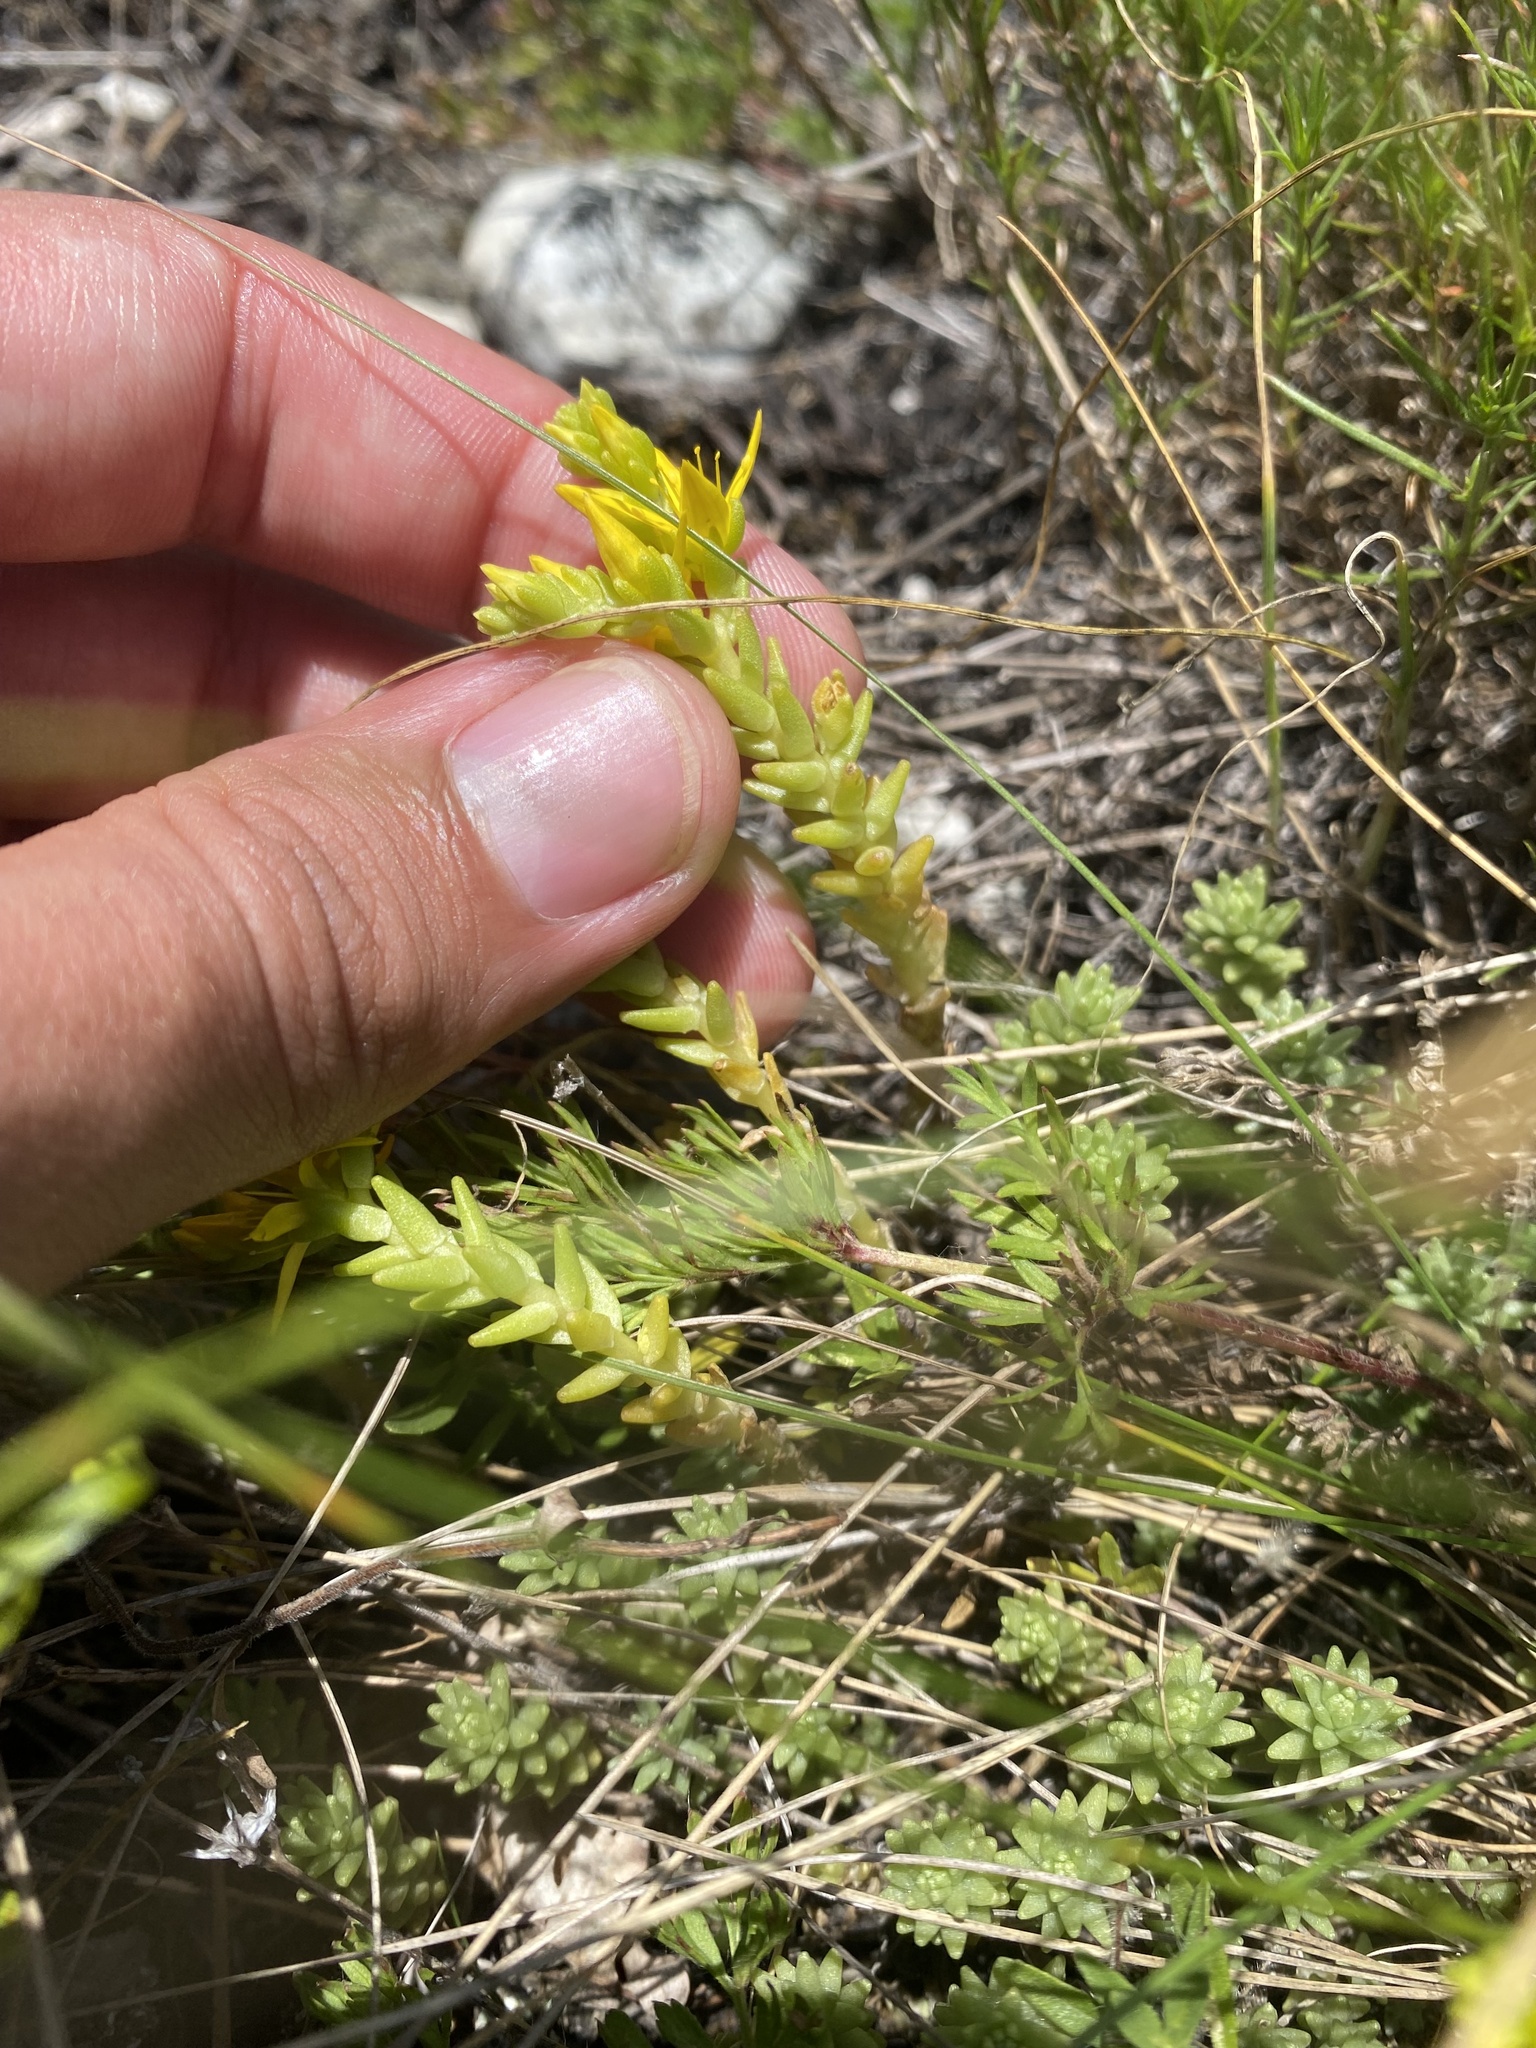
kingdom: Plantae
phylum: Tracheophyta
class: Magnoliopsida
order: Saxifragales
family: Crassulaceae
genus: Sedum
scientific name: Sedum acre
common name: Biting stonecrop
